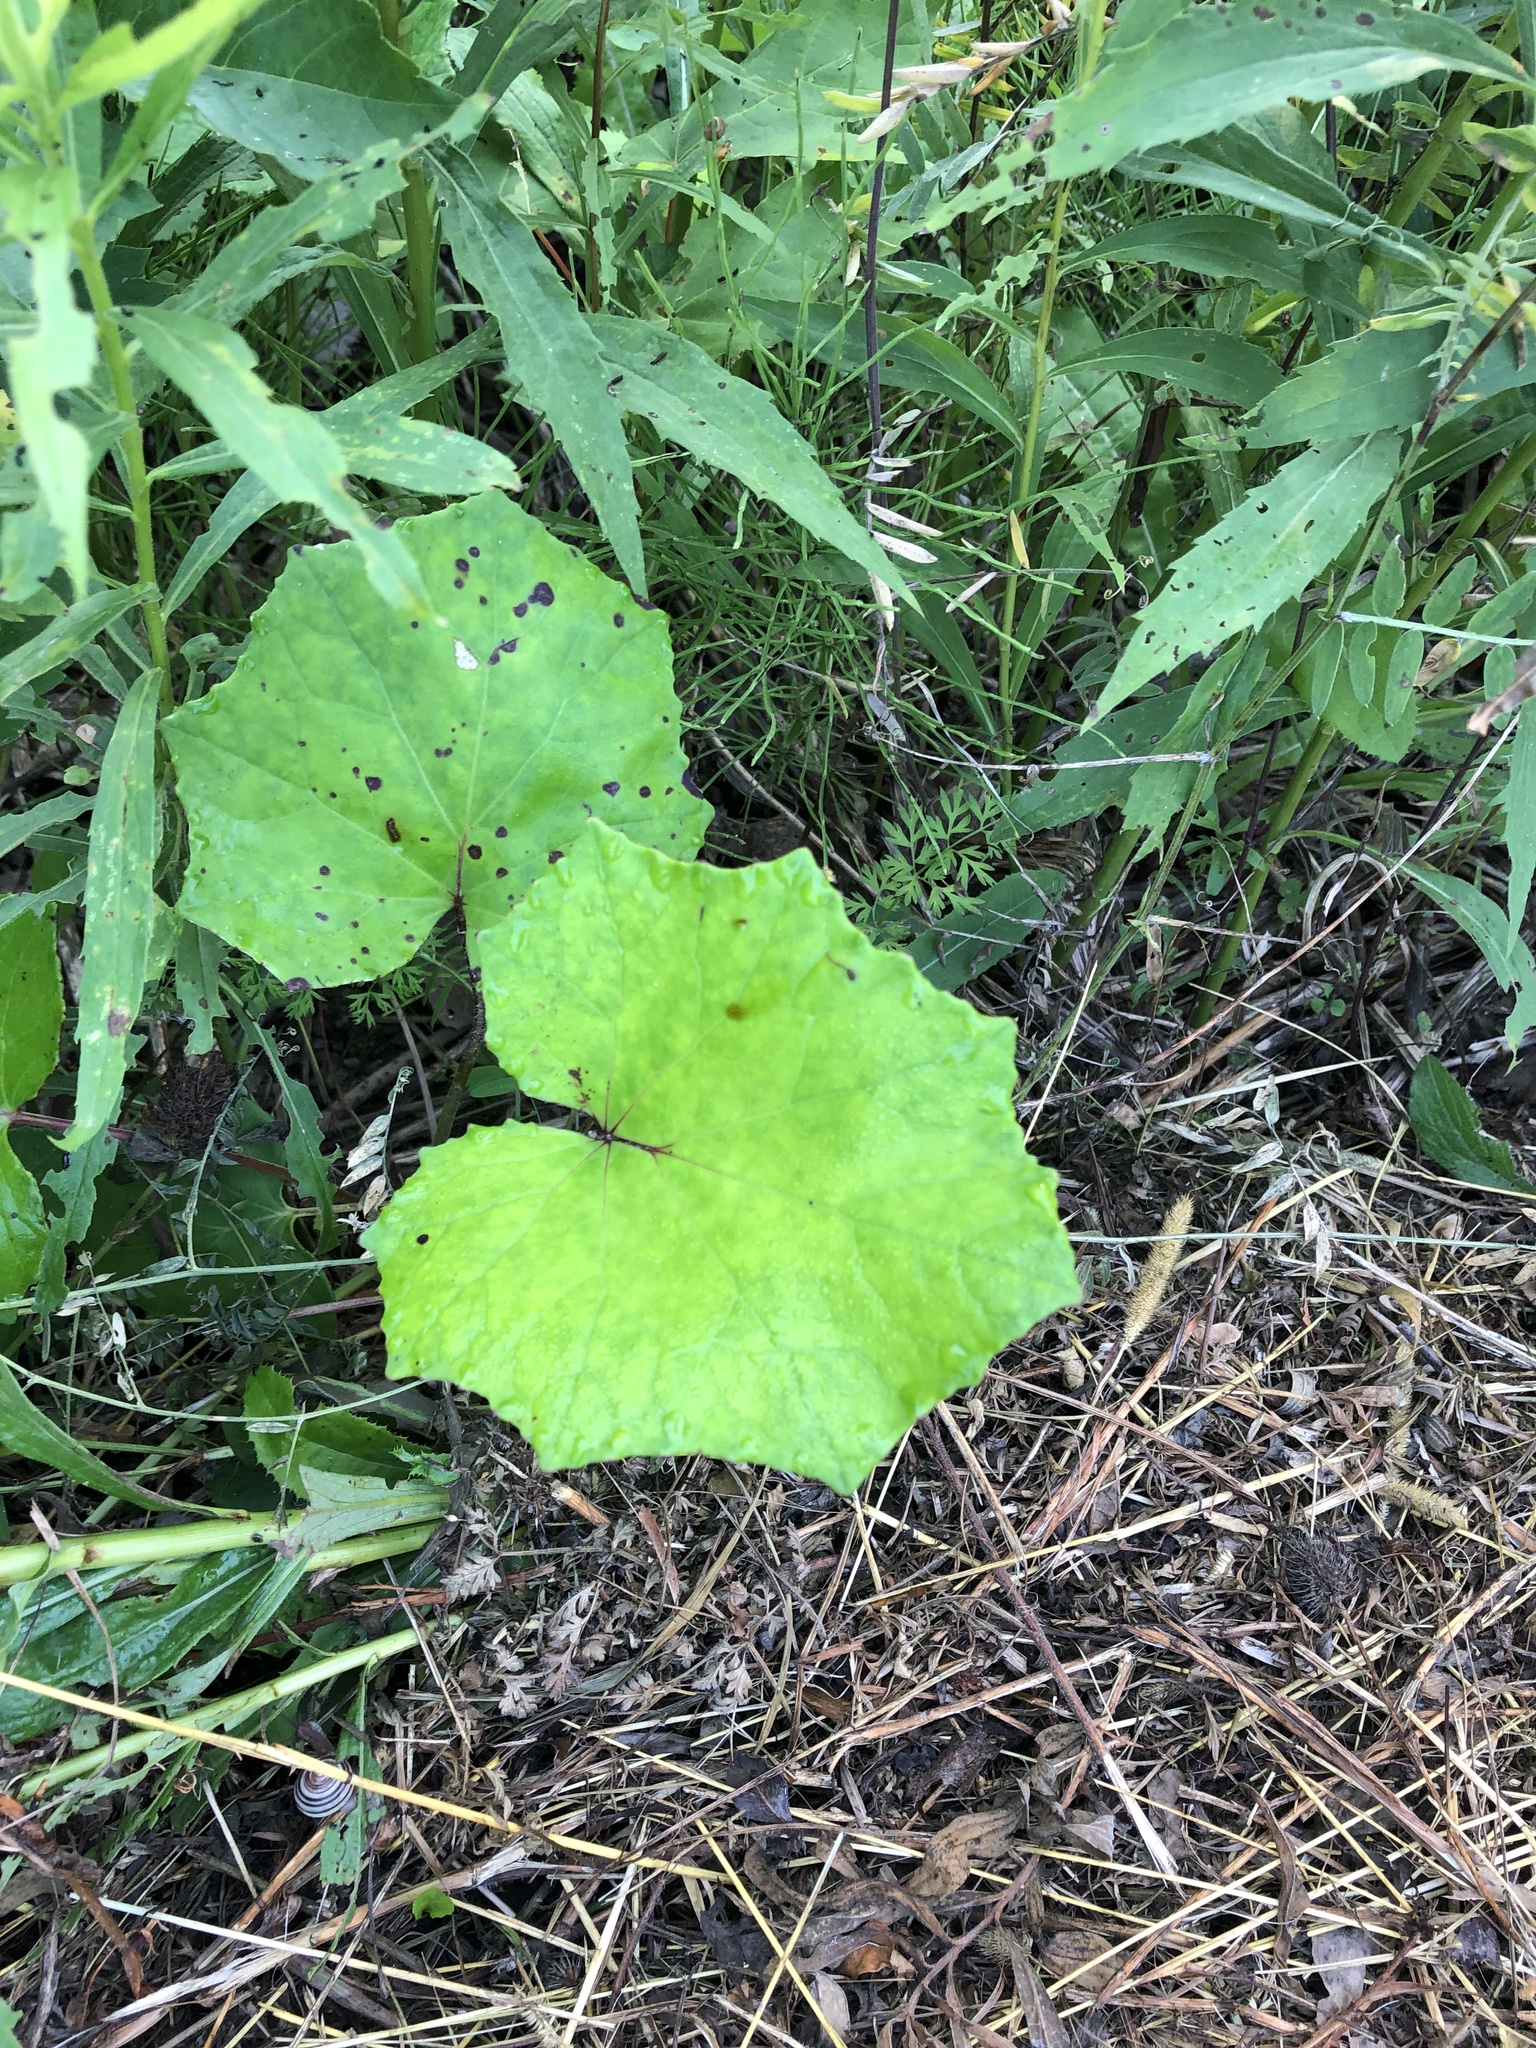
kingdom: Plantae
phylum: Tracheophyta
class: Magnoliopsida
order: Asterales
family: Asteraceae
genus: Tussilago
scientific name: Tussilago farfara
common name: Coltsfoot
